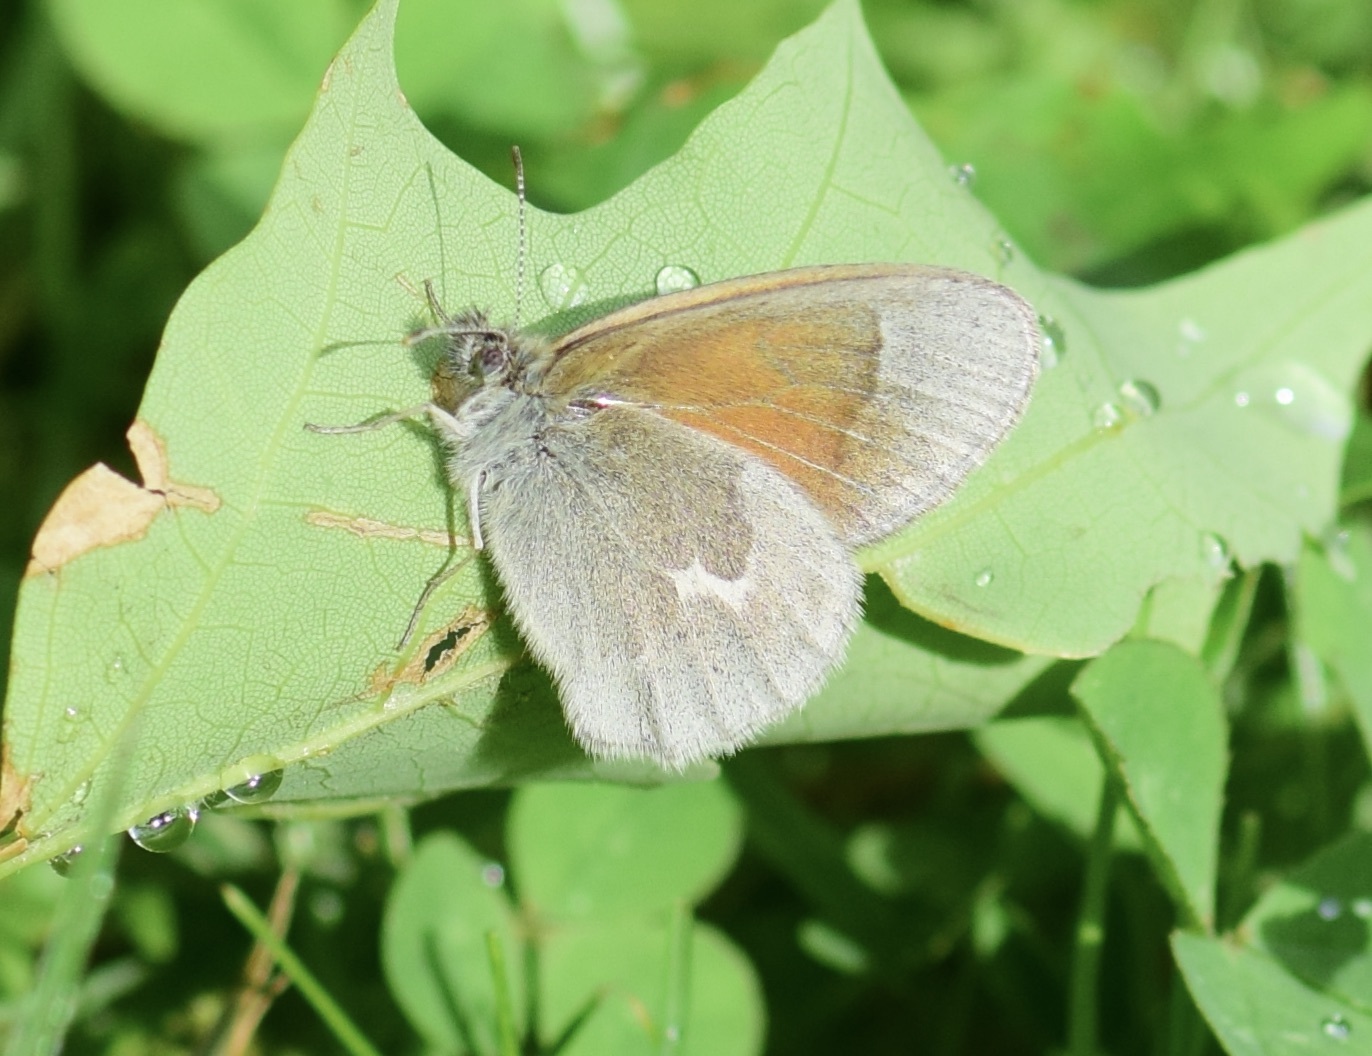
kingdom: Animalia
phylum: Arthropoda
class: Insecta
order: Lepidoptera
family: Nymphalidae
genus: Coenonympha
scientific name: Coenonympha california
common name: Common ringlet
